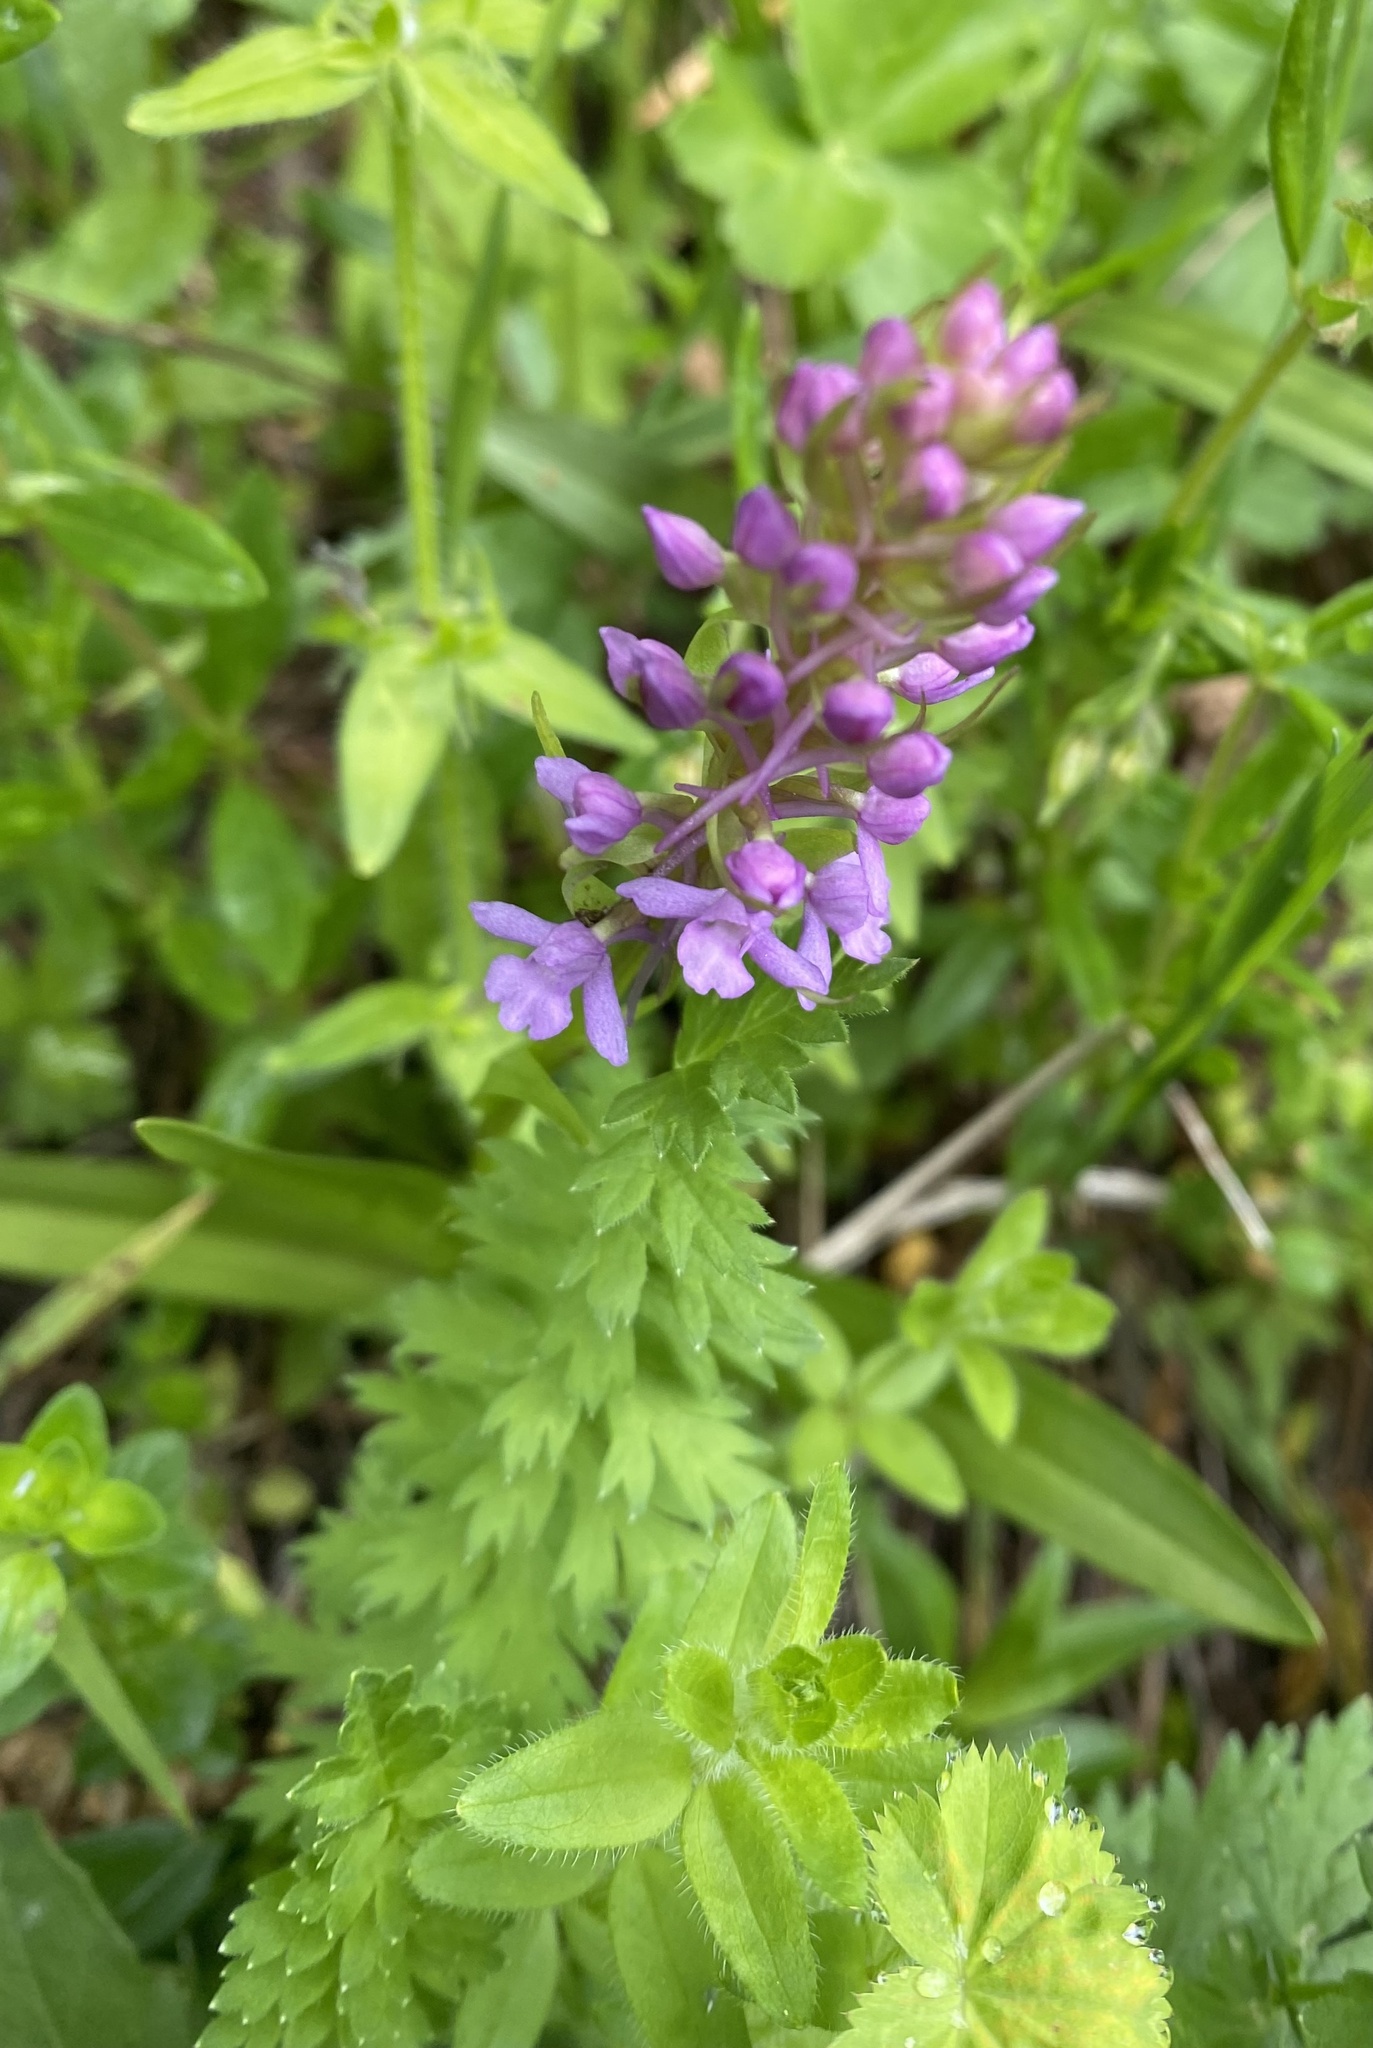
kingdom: Plantae
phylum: Tracheophyta
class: Liliopsida
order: Asparagales
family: Orchidaceae
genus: Gymnadenia
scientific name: Gymnadenia conopsea
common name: Fragrant orchid
